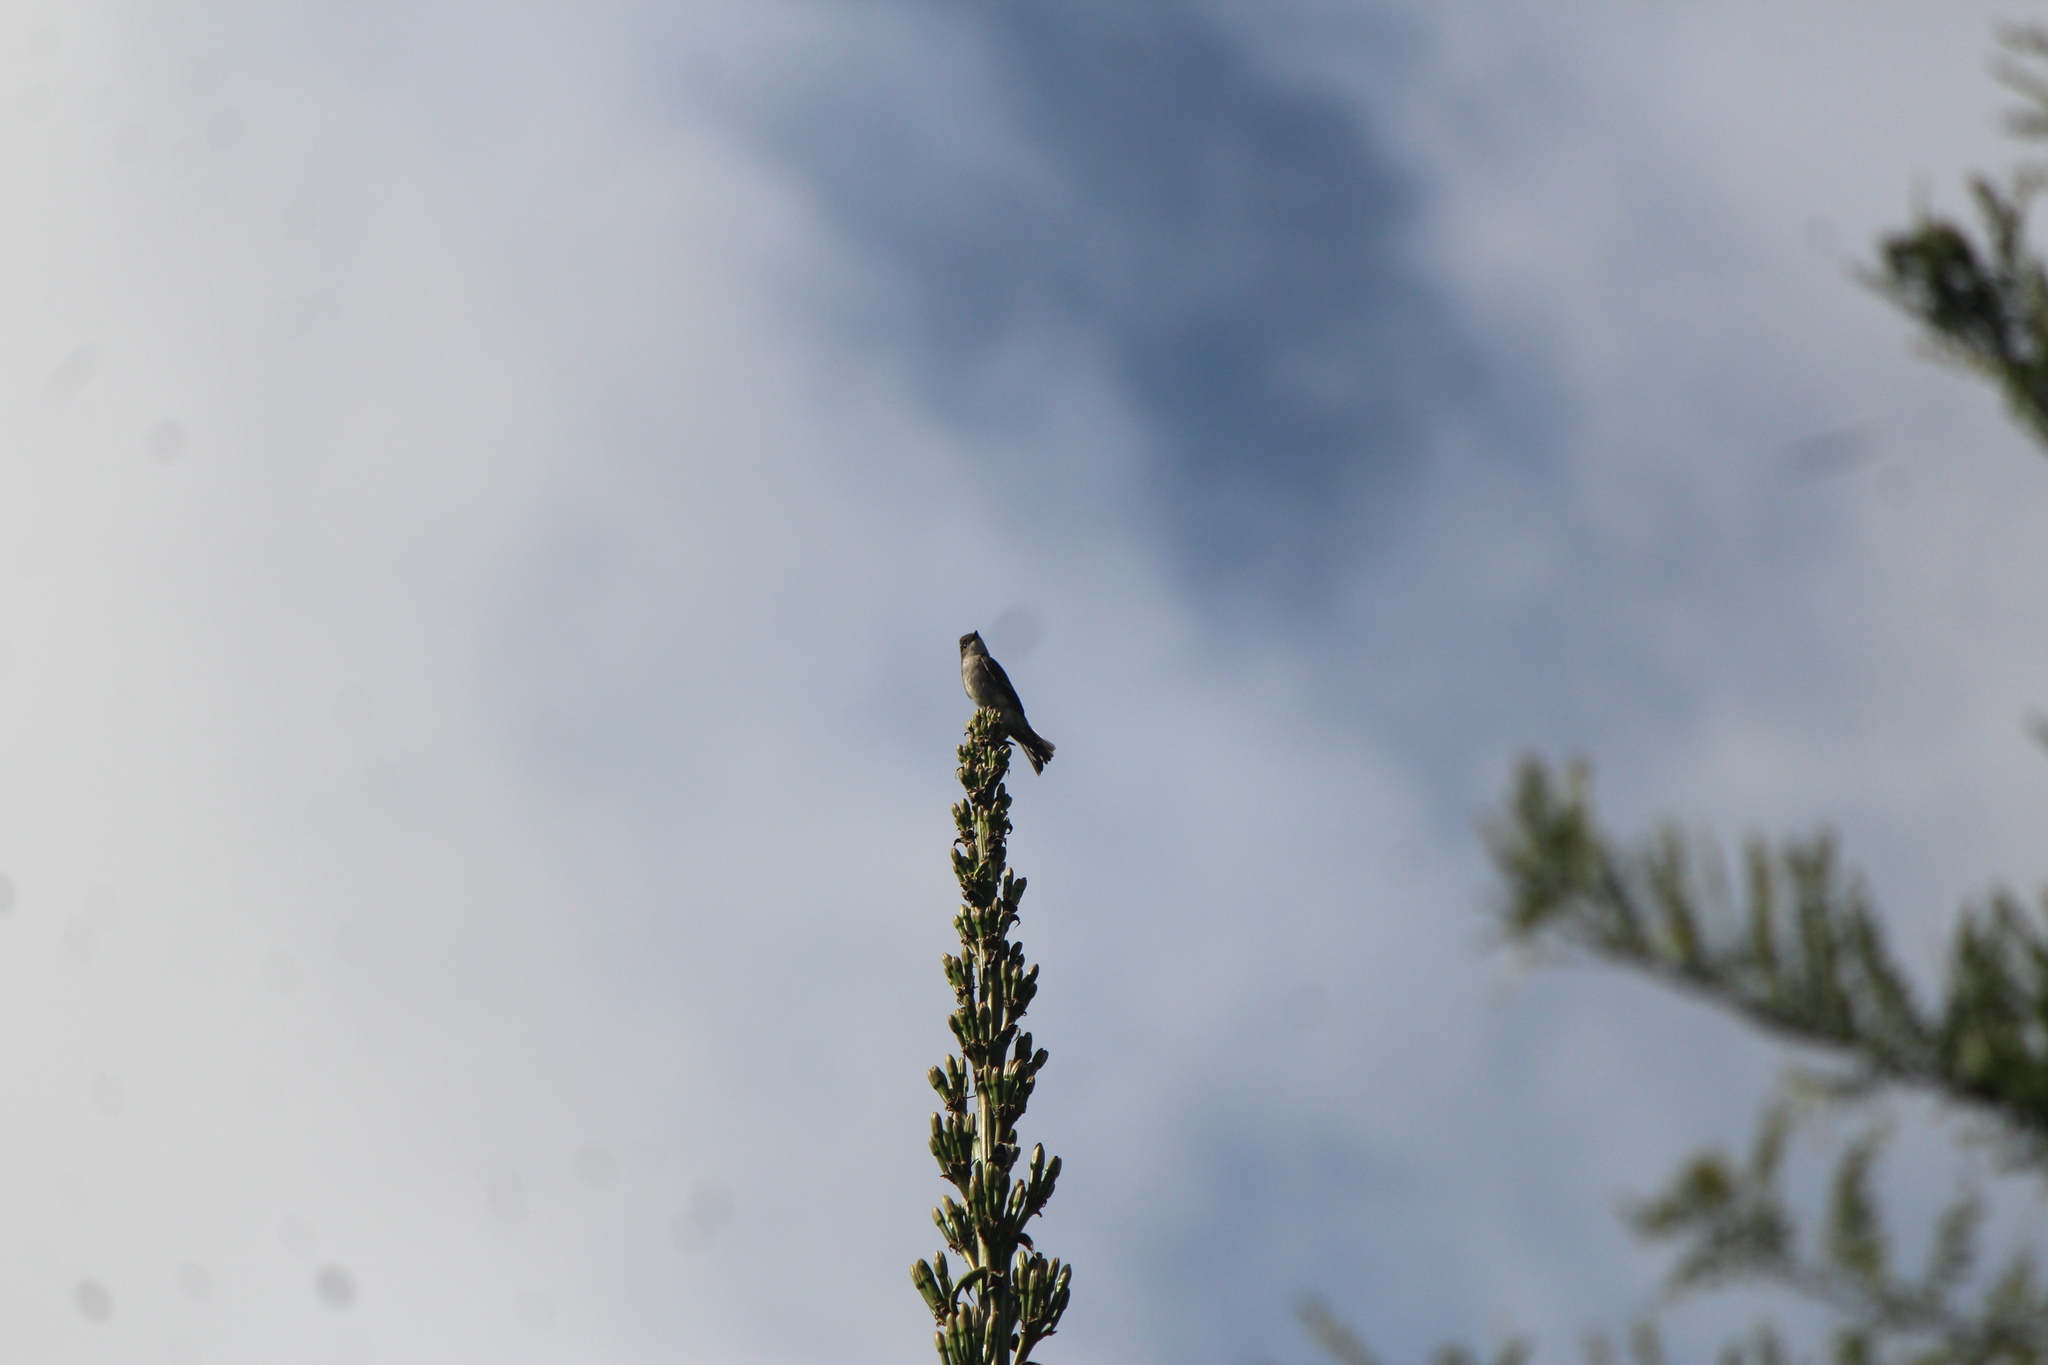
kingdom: Animalia
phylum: Chordata
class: Aves
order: Passeriformes
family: Tyrannidae
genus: Contopus
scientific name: Contopus sordidulus
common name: Western wood-pewee
